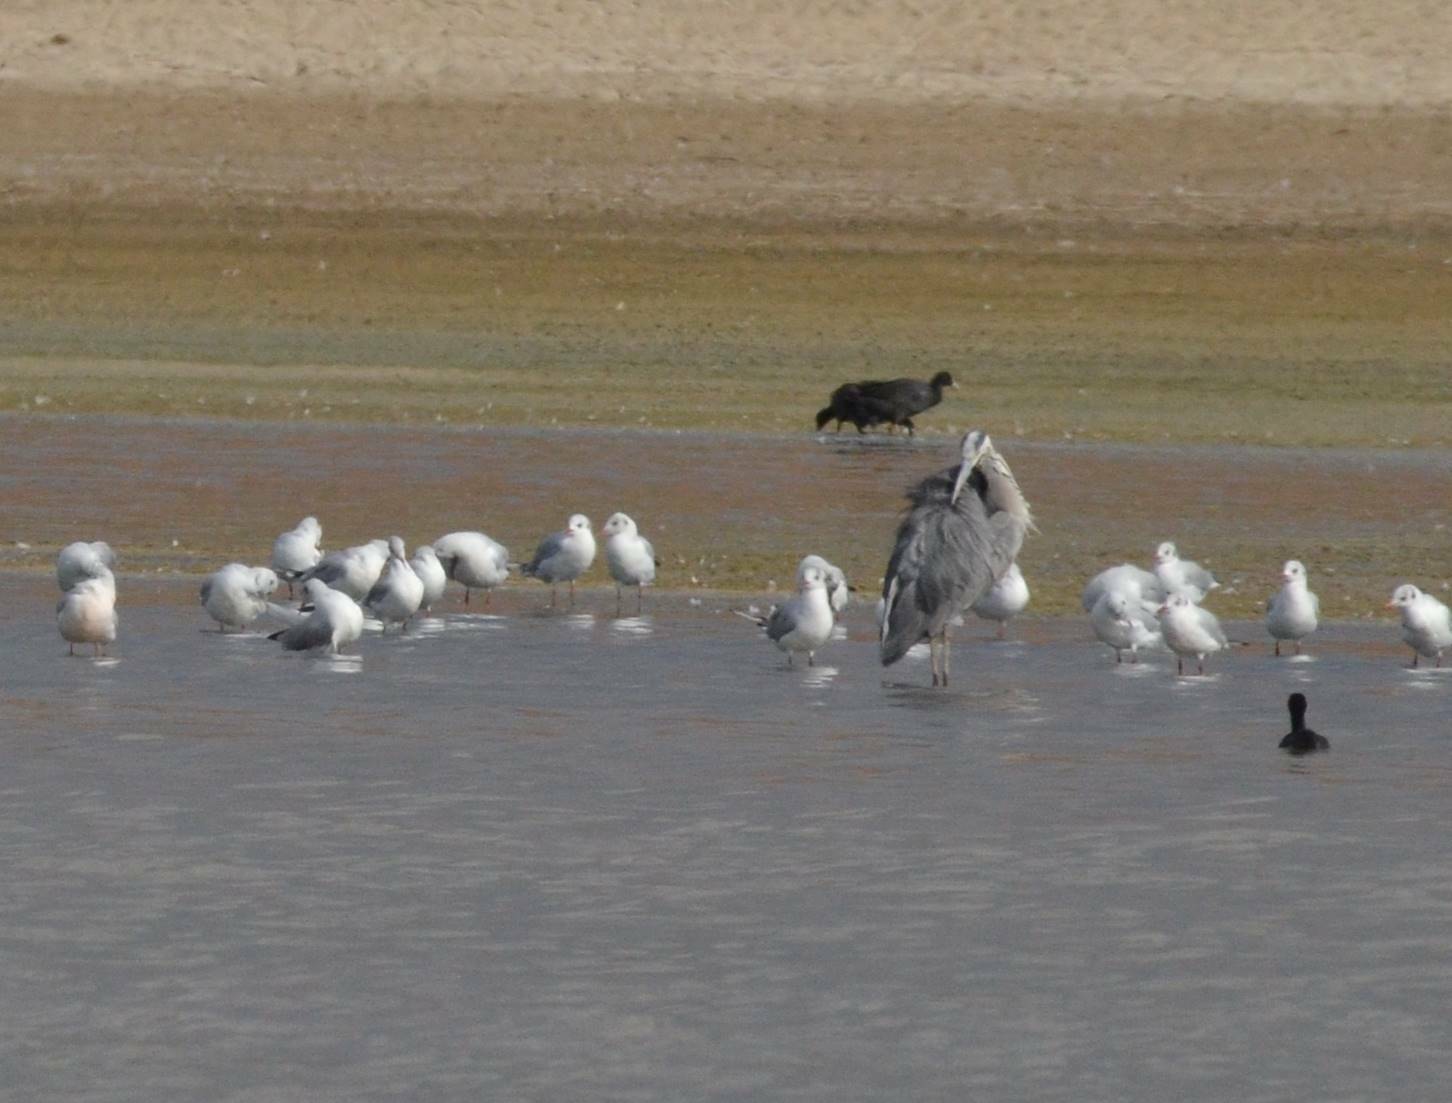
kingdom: Animalia
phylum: Chordata
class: Aves
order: Charadriiformes
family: Laridae
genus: Chroicocephalus
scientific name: Chroicocephalus ridibundus
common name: Black-headed gull
